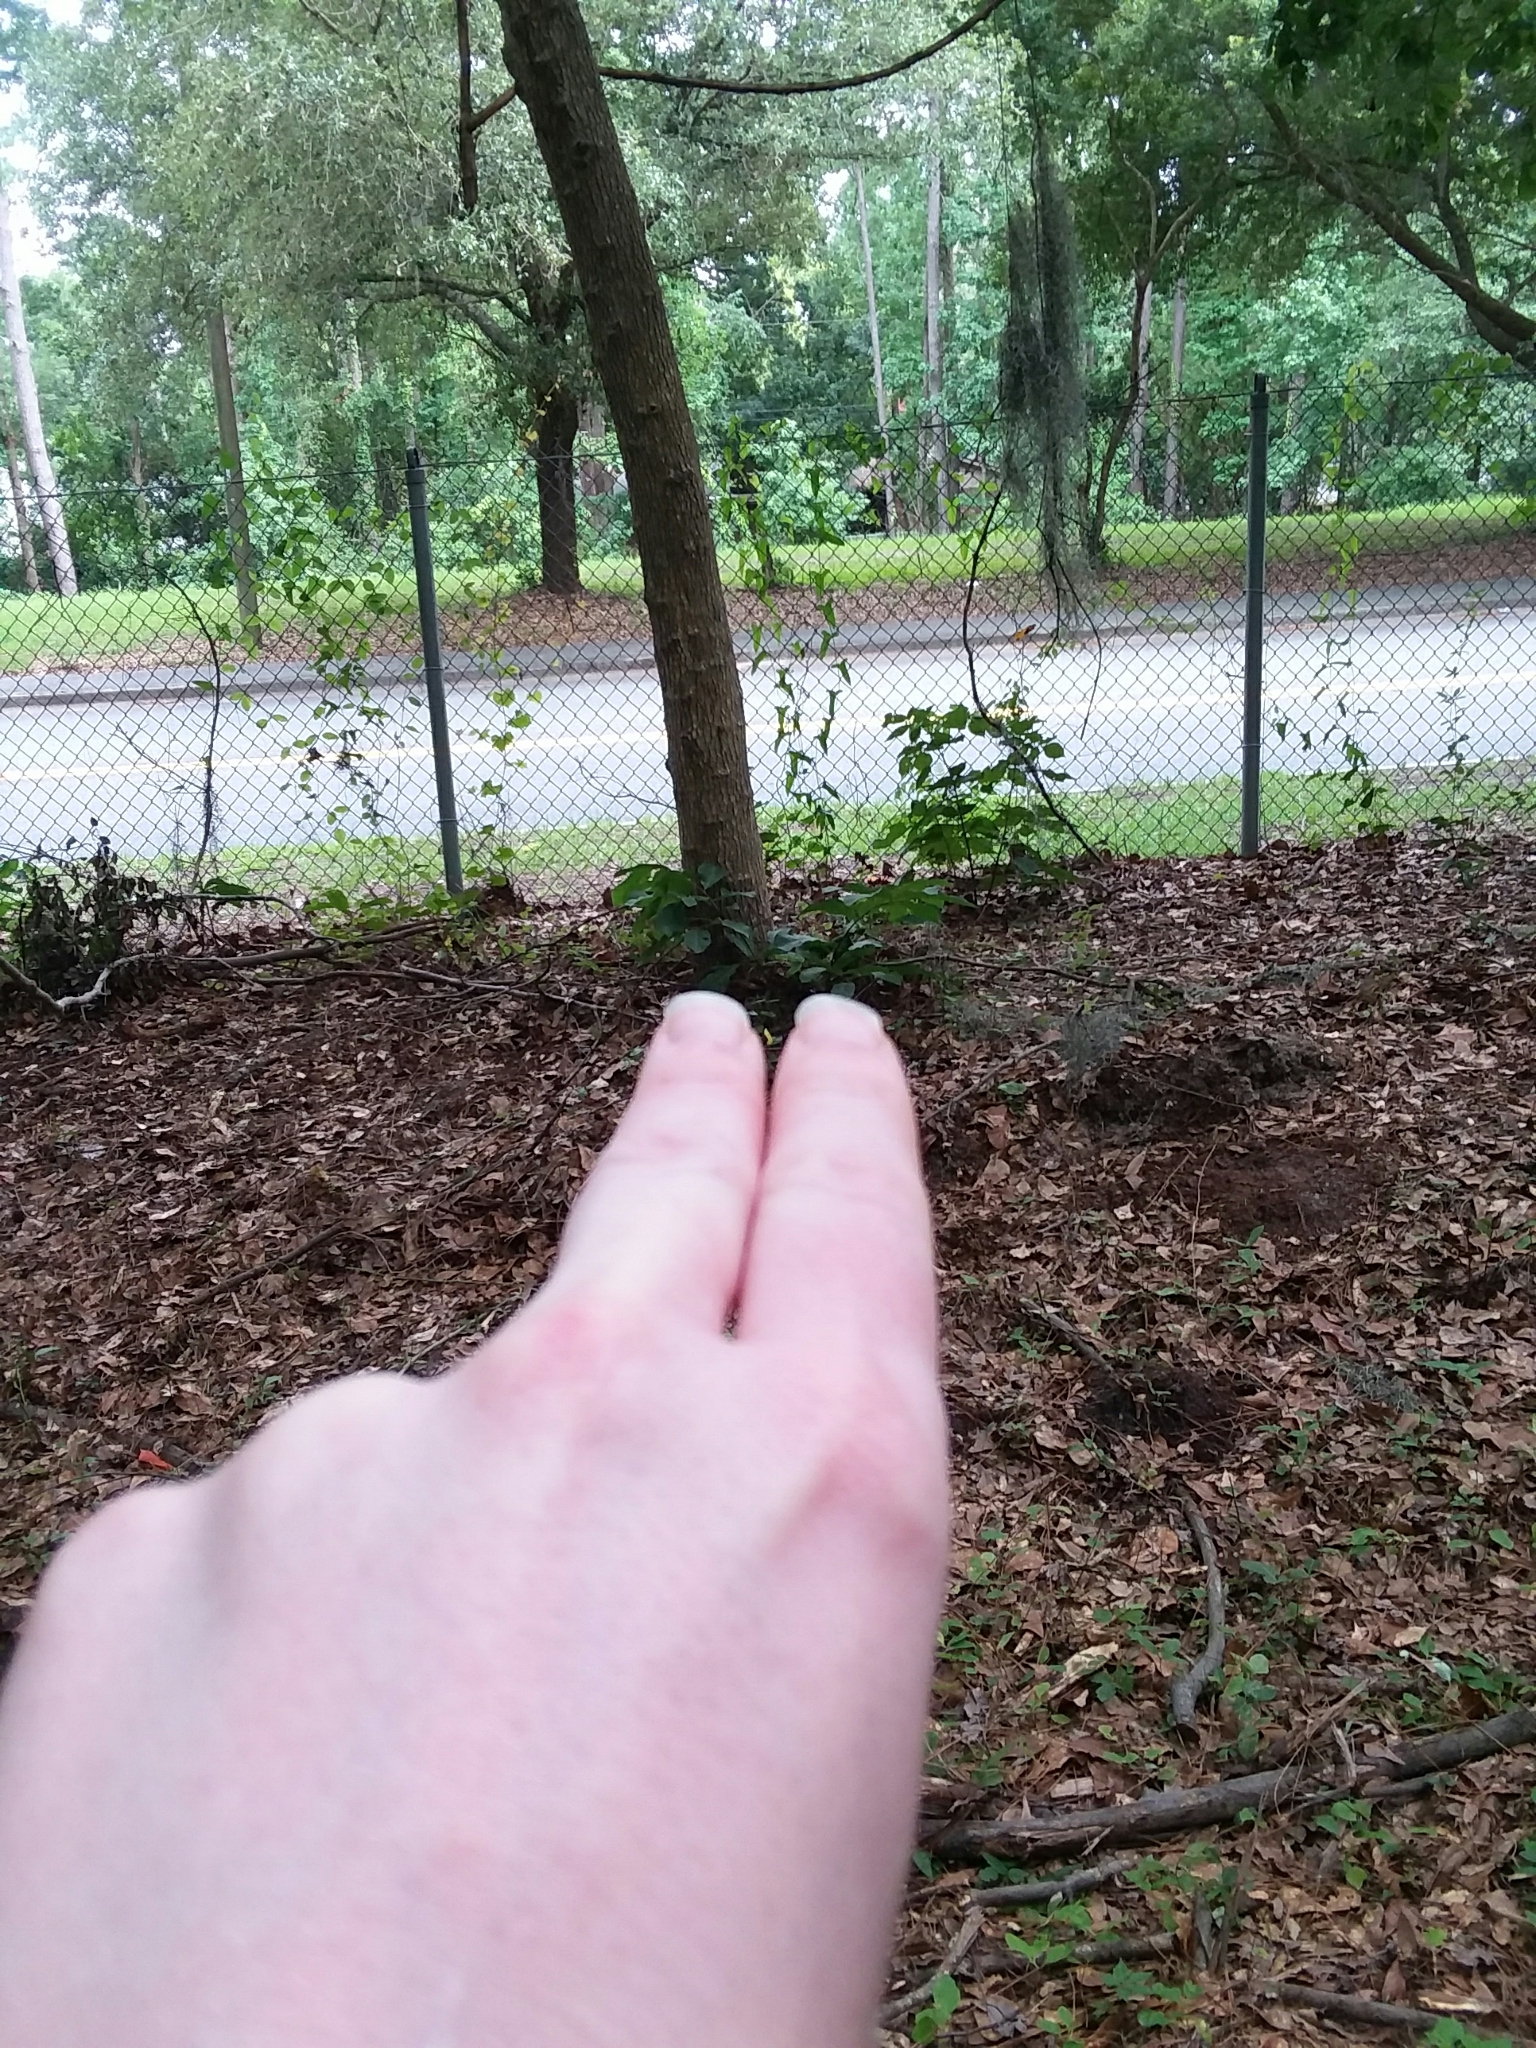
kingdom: Plantae
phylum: Tracheophyta
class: Magnoliopsida
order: Magnoliales
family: Annonaceae
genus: Asimina
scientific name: Asimina parviflora
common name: Dwarf pawpaw
